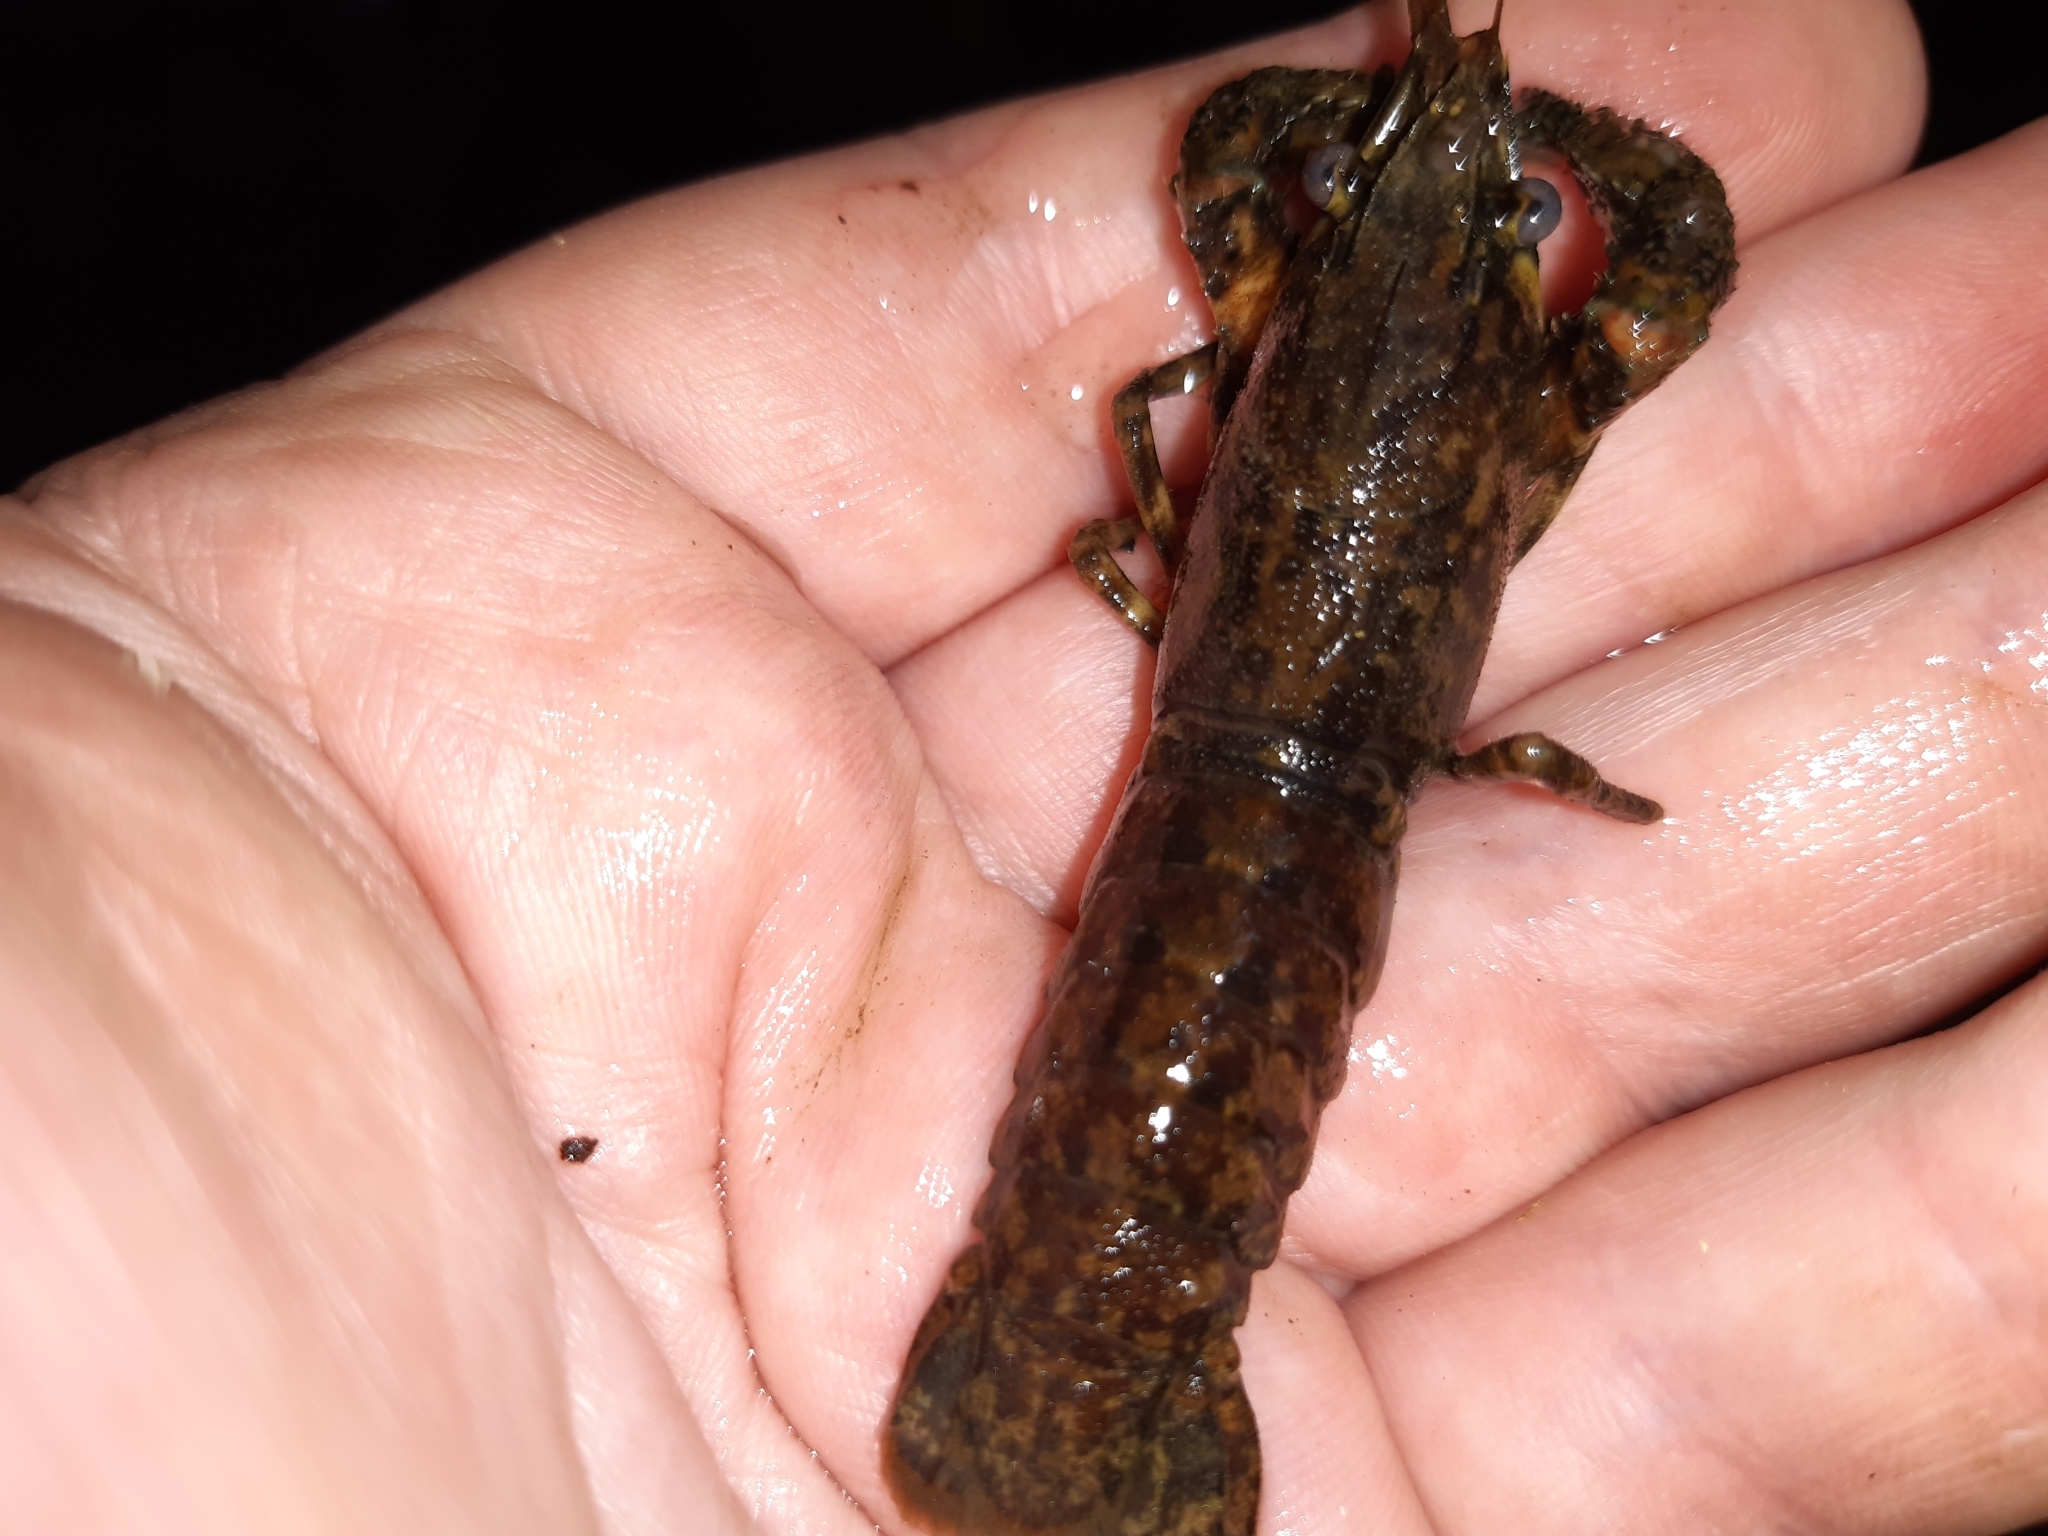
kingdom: Animalia
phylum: Arthropoda
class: Malacostraca
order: Decapoda
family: Parastacidae
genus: Paranephrops
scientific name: Paranephrops zealandicus
